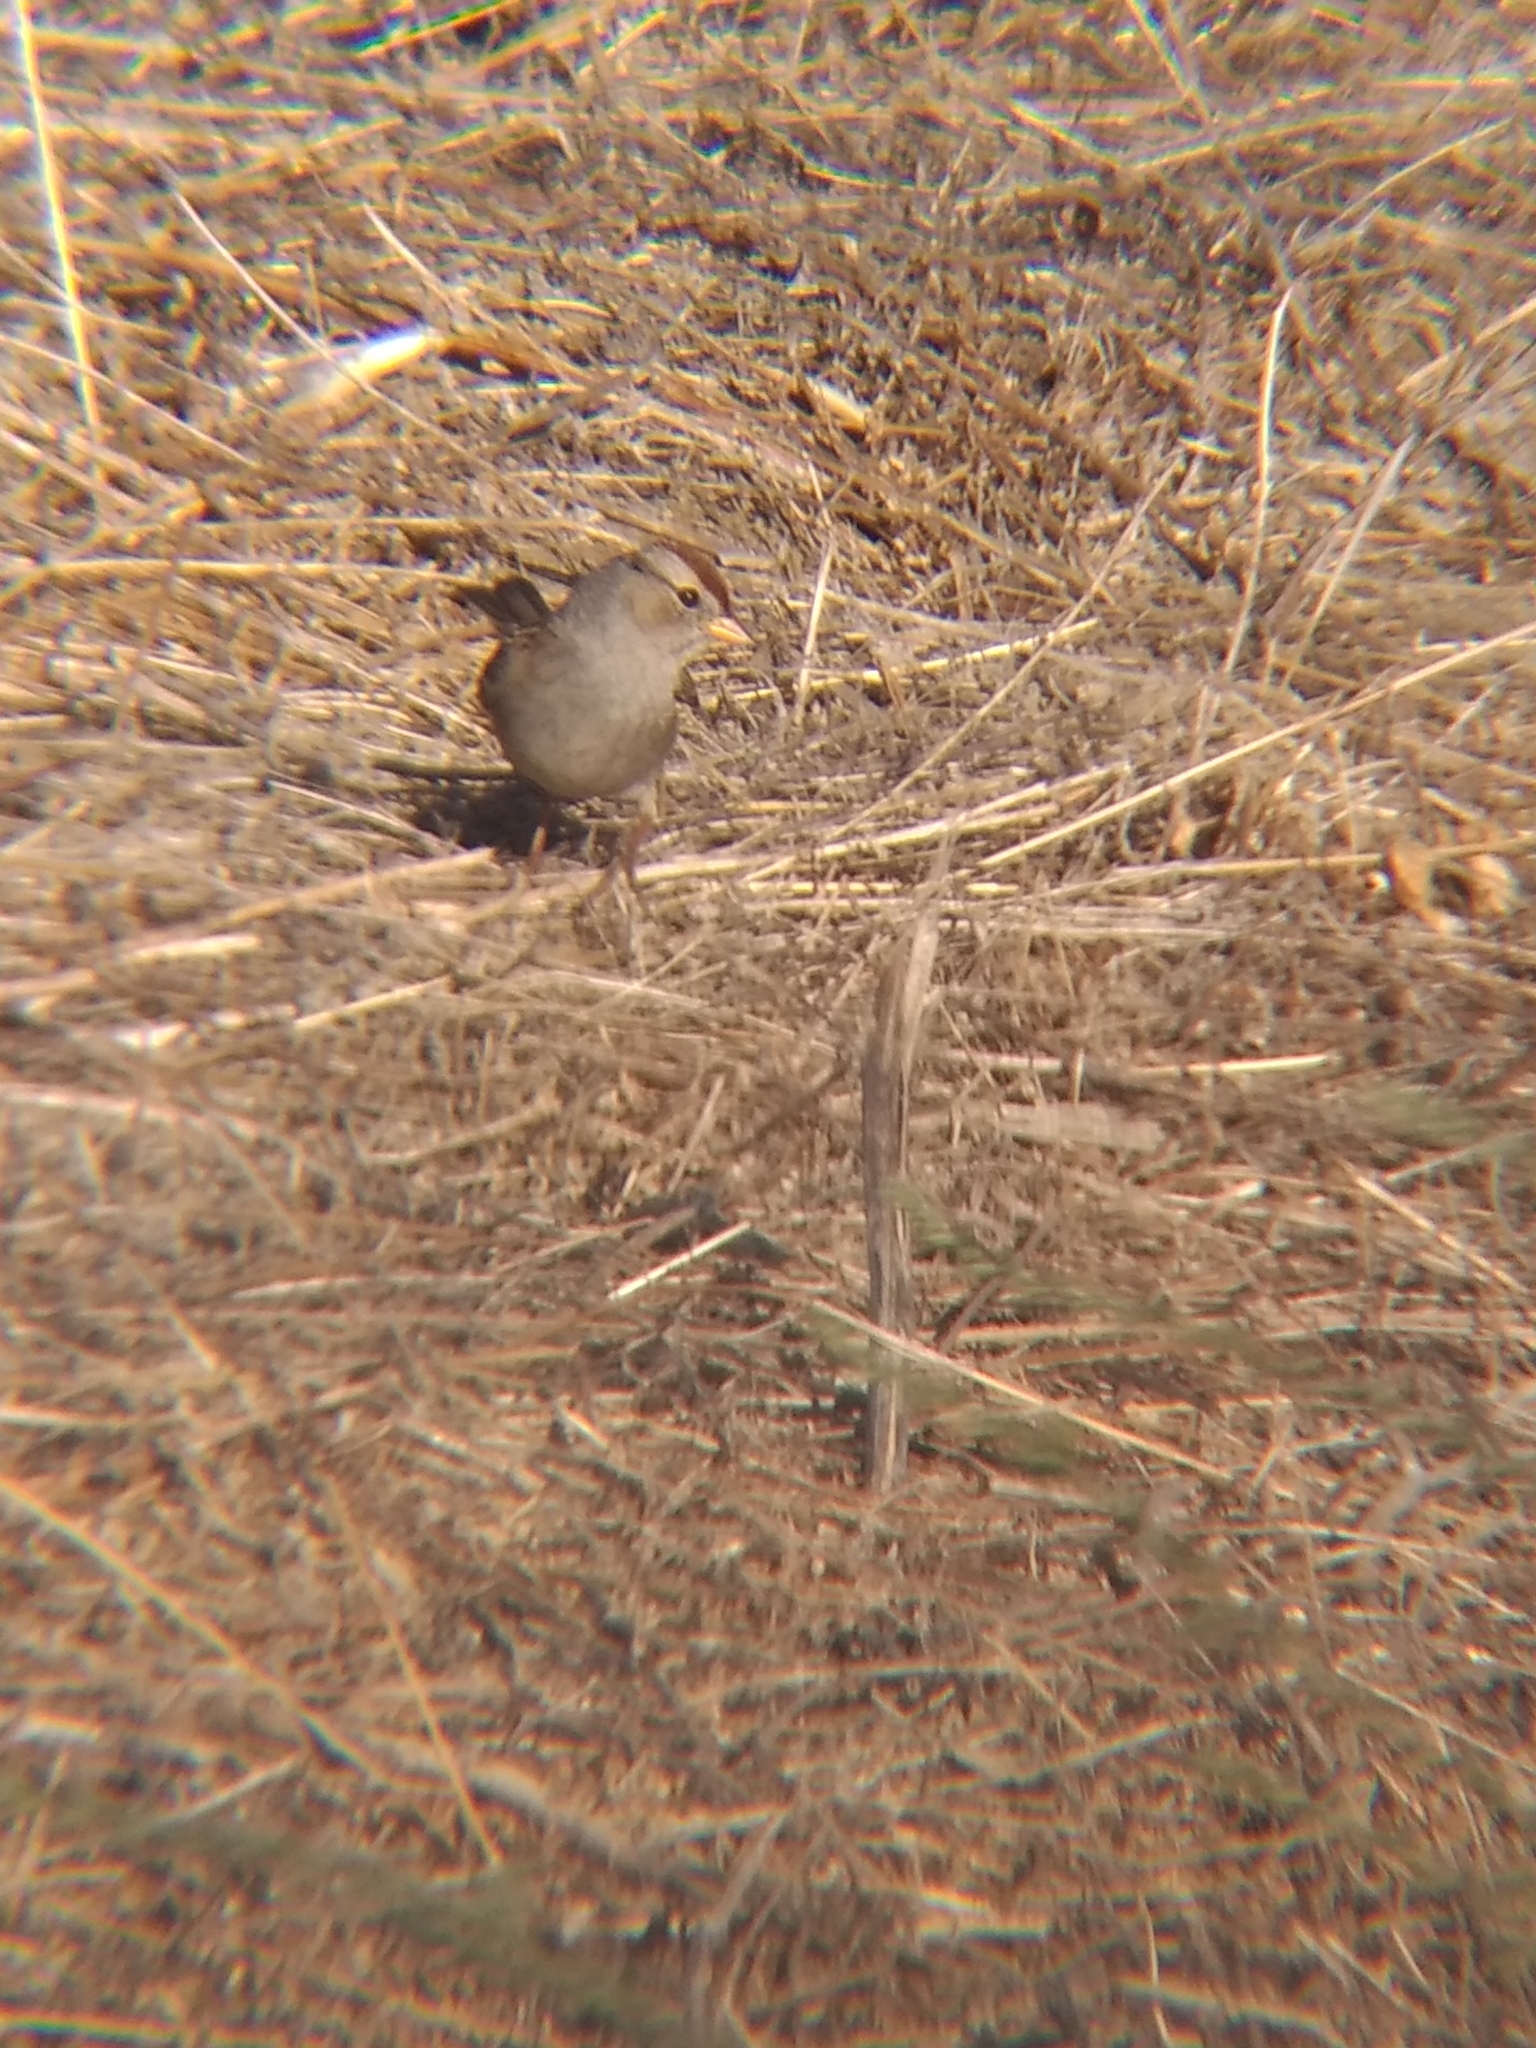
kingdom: Animalia
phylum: Chordata
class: Aves
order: Passeriformes
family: Passerellidae
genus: Zonotrichia
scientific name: Zonotrichia leucophrys
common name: White-crowned sparrow
